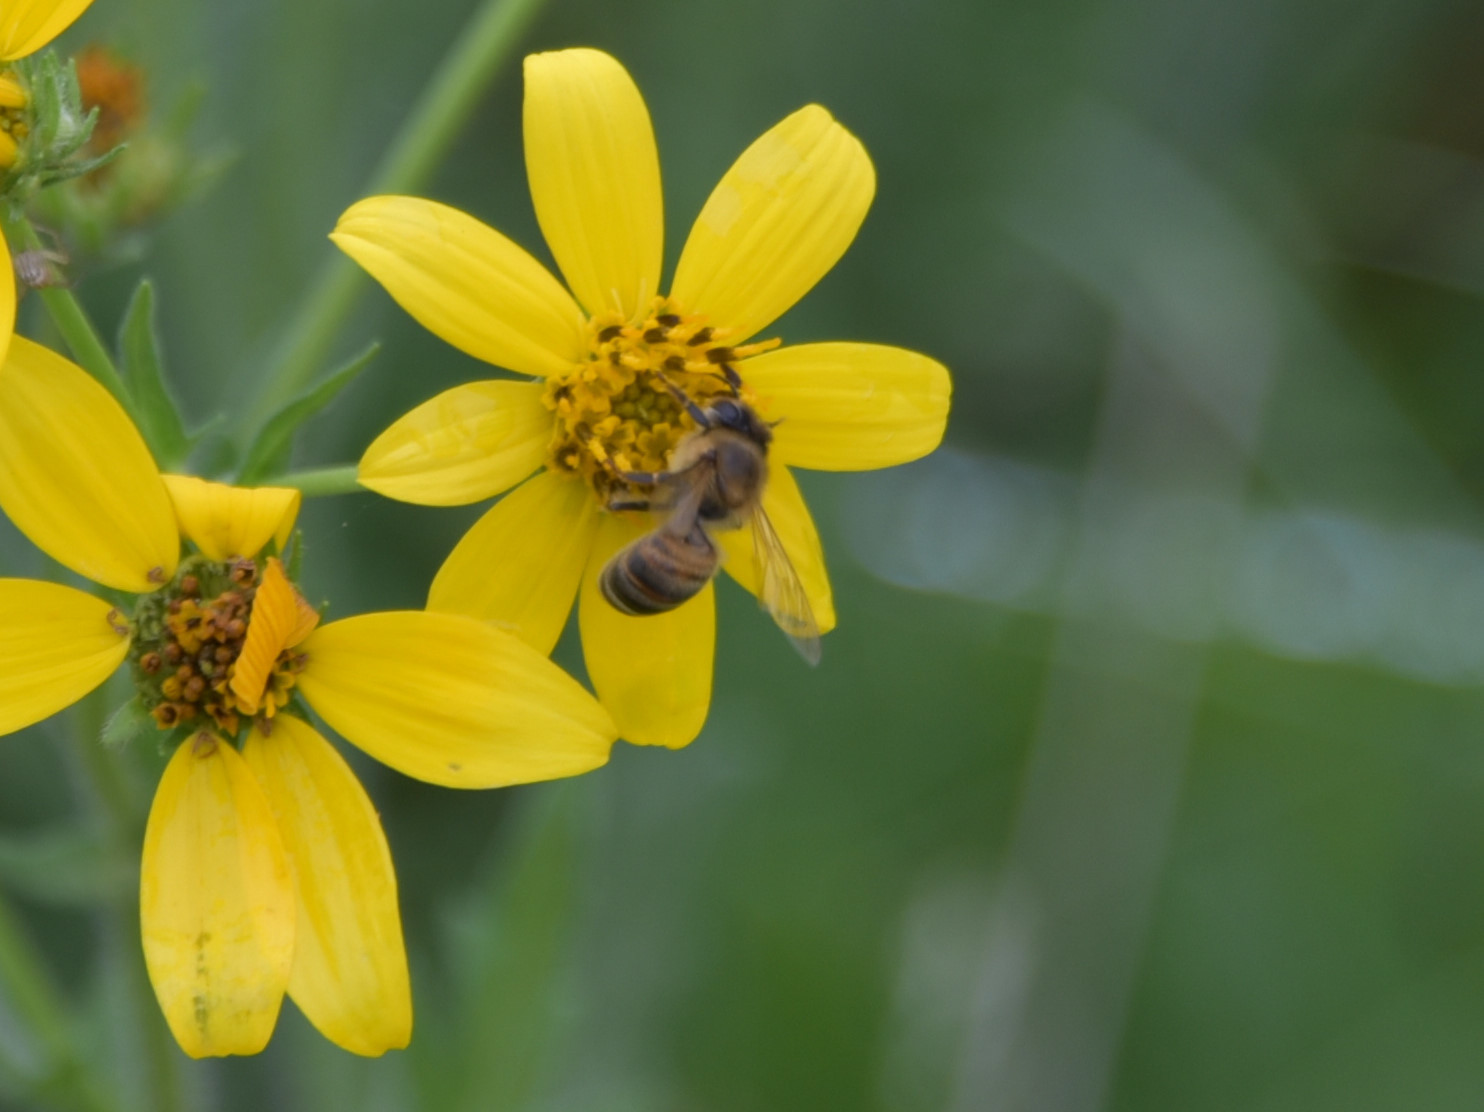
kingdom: Animalia
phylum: Arthropoda
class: Insecta
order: Hymenoptera
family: Apidae
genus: Apis
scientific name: Apis mellifera
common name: Honey bee
